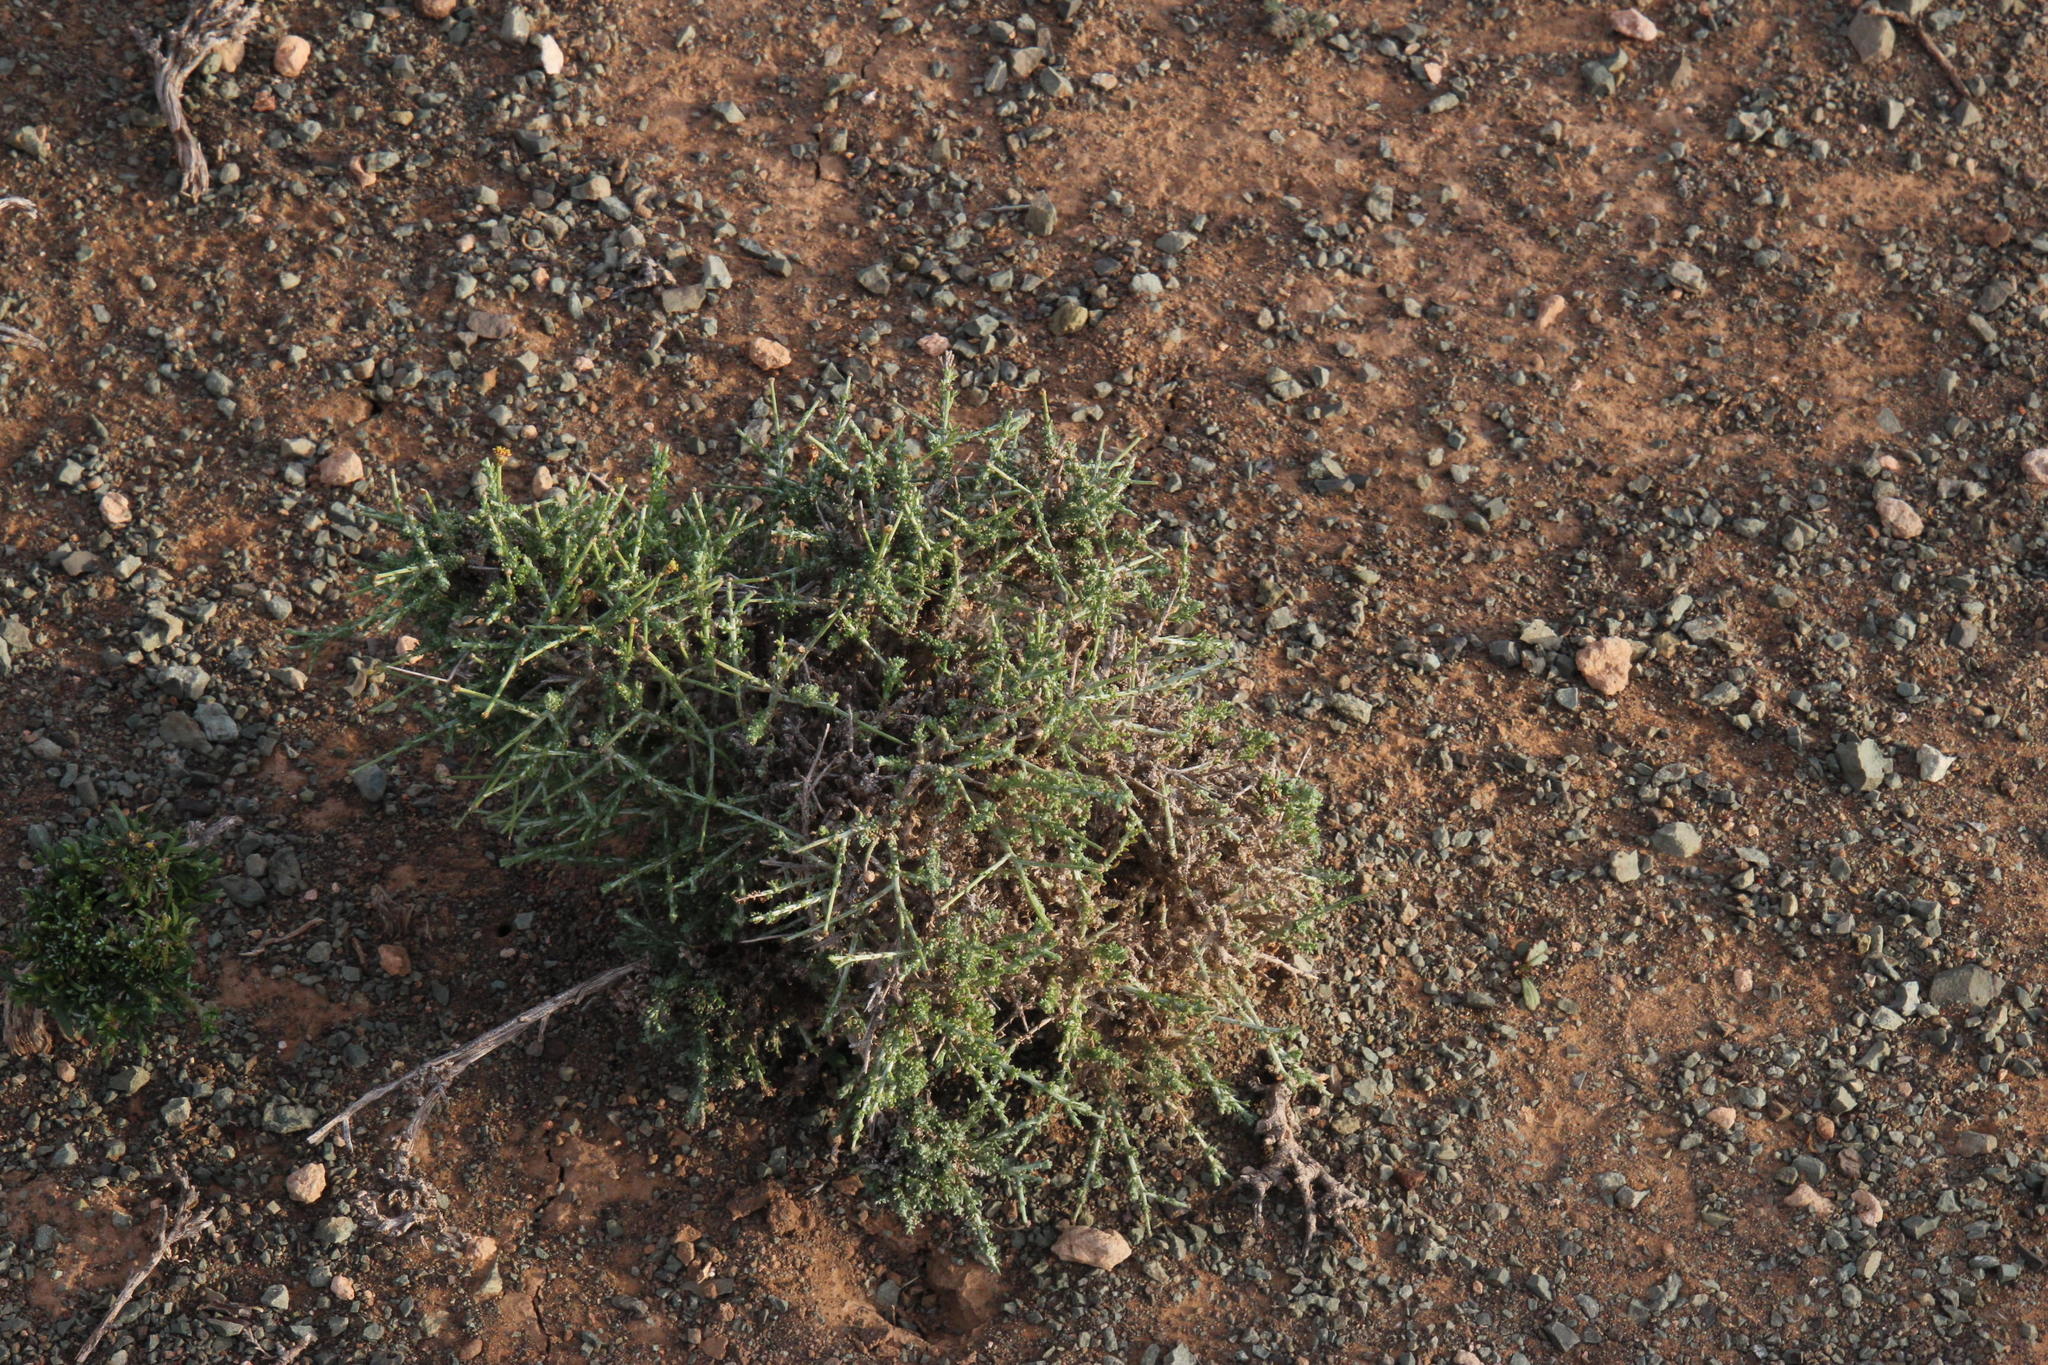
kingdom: Plantae
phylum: Tracheophyta
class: Magnoliopsida
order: Asterales
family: Asteraceae
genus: Pentzia
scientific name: Pentzia spinescens
